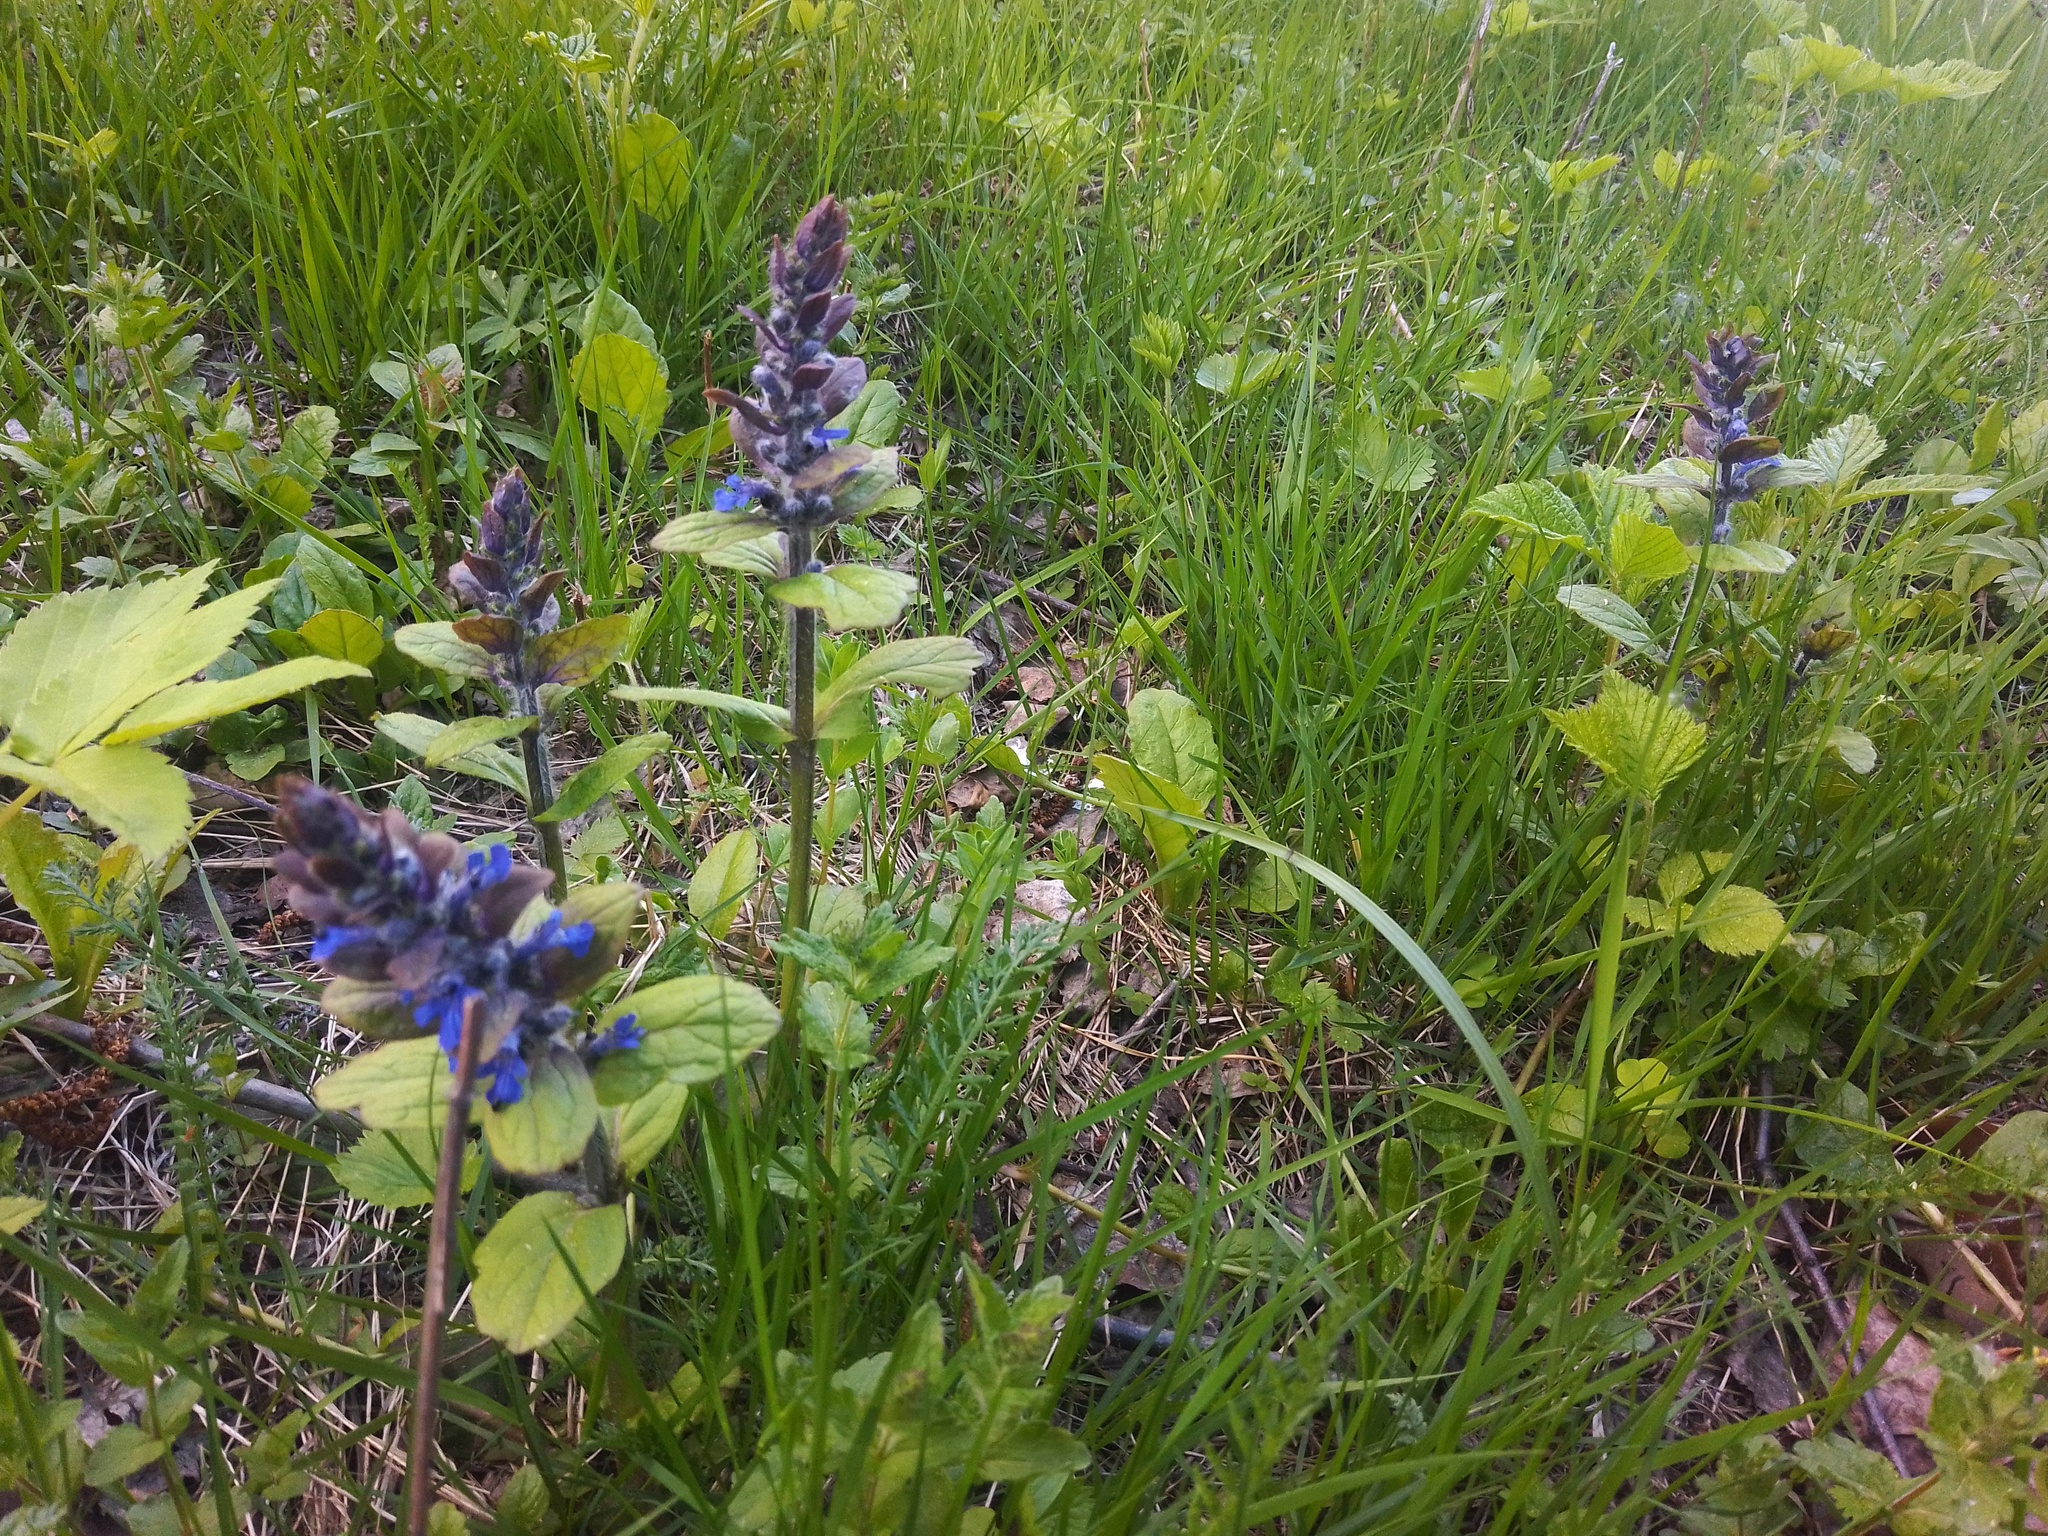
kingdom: Plantae
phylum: Tracheophyta
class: Magnoliopsida
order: Lamiales
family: Lamiaceae
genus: Ajuga
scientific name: Ajuga reptans
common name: Bugle
